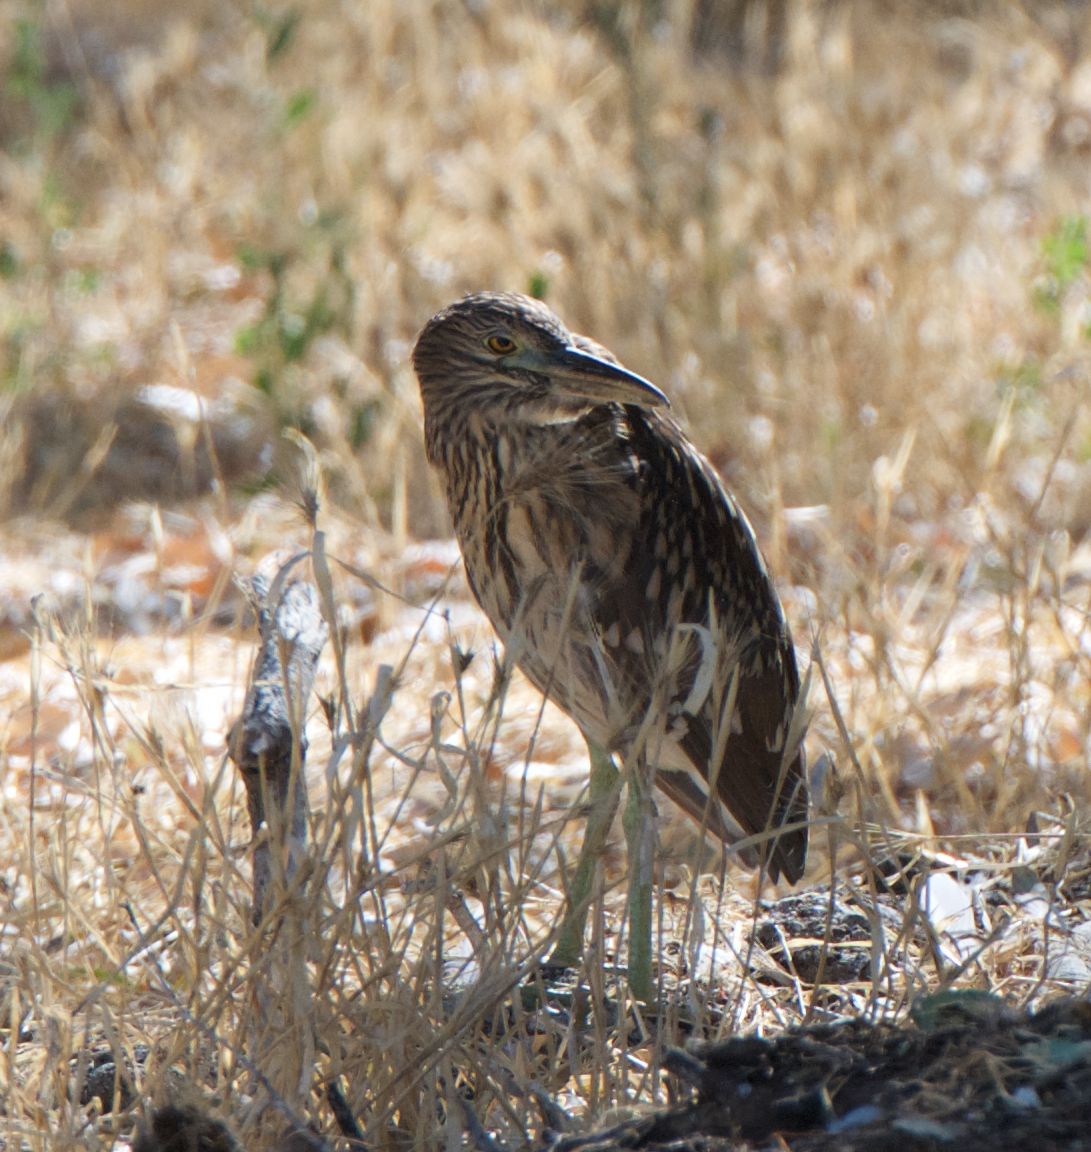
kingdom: Animalia
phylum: Chordata
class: Aves
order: Pelecaniformes
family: Ardeidae
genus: Nycticorax
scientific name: Nycticorax nycticorax
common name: Black-crowned night heron
